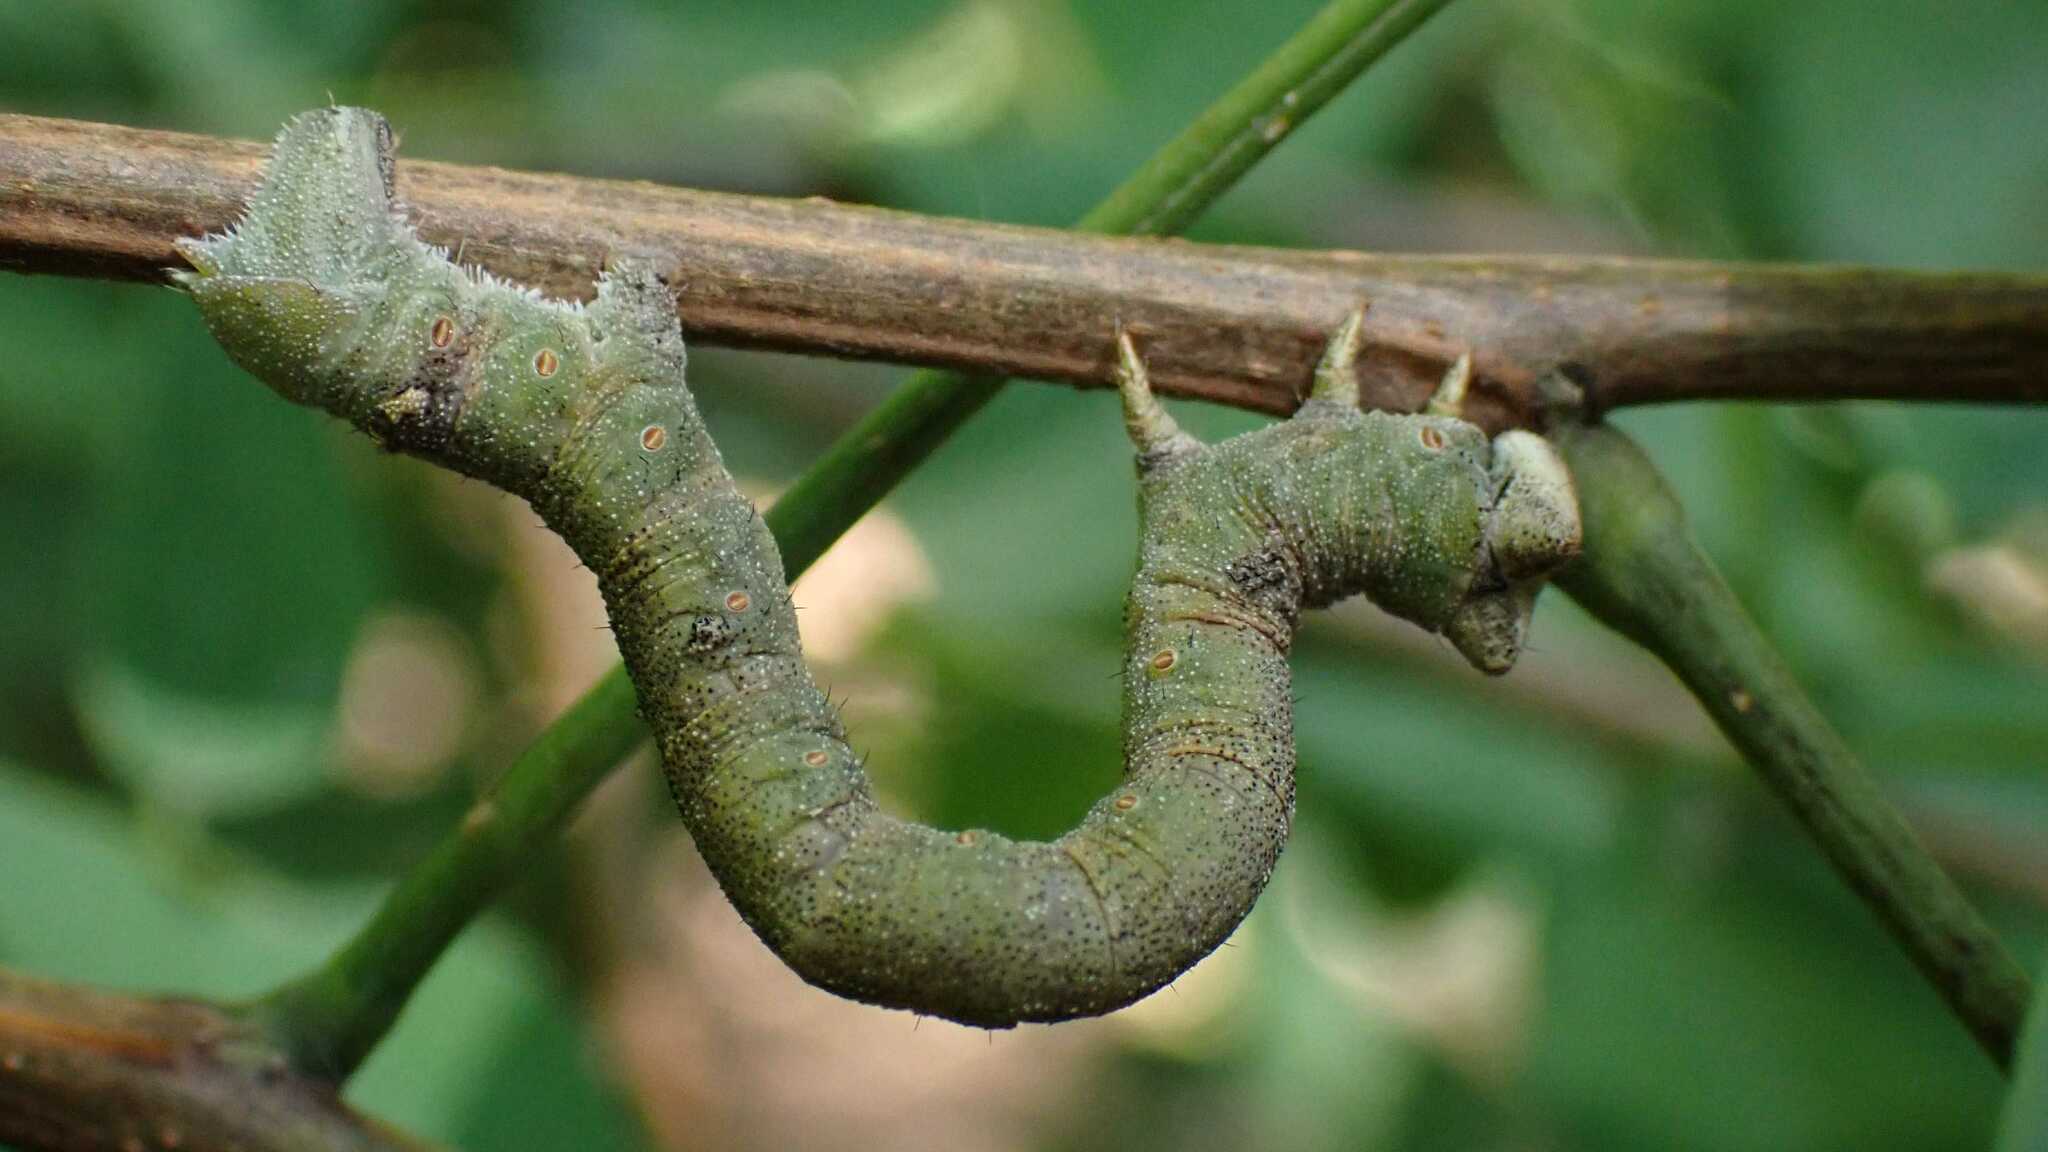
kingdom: Animalia
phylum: Arthropoda
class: Insecta
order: Lepidoptera
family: Geometridae
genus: Biston
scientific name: Biston betularia
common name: Peppered moth
